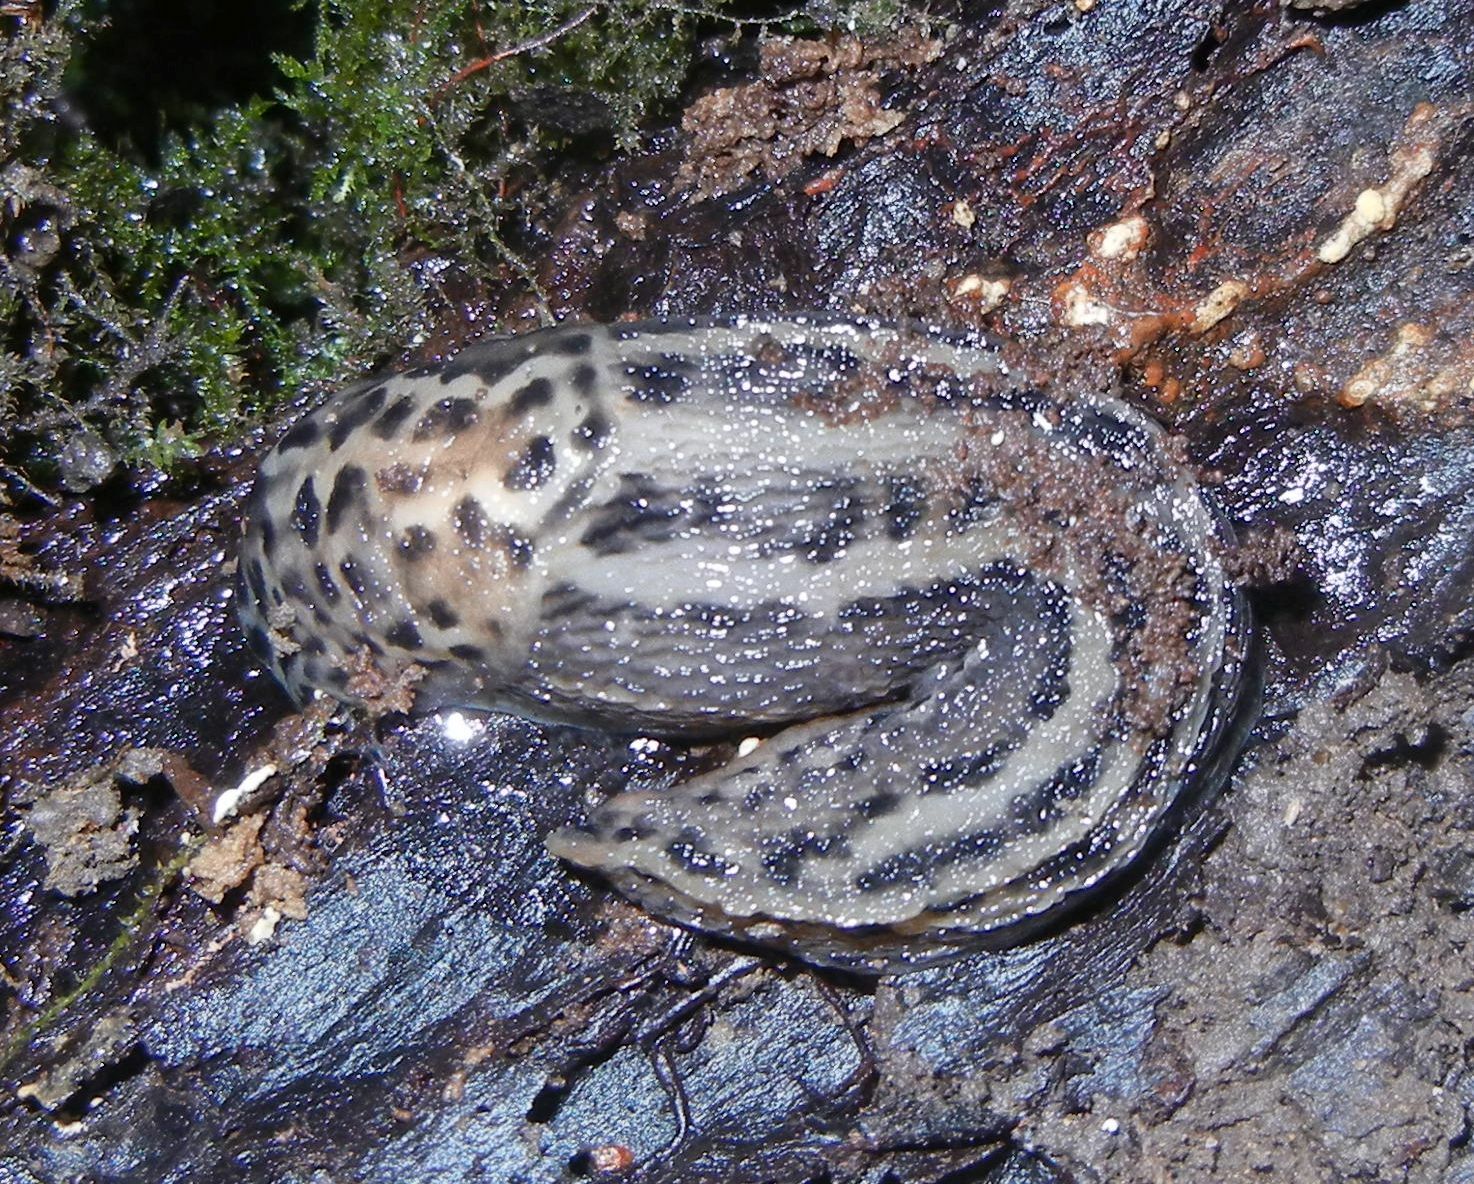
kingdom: Animalia
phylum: Mollusca
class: Gastropoda
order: Stylommatophora
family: Limacidae
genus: Limax
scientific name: Limax maximus
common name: Great grey slug
